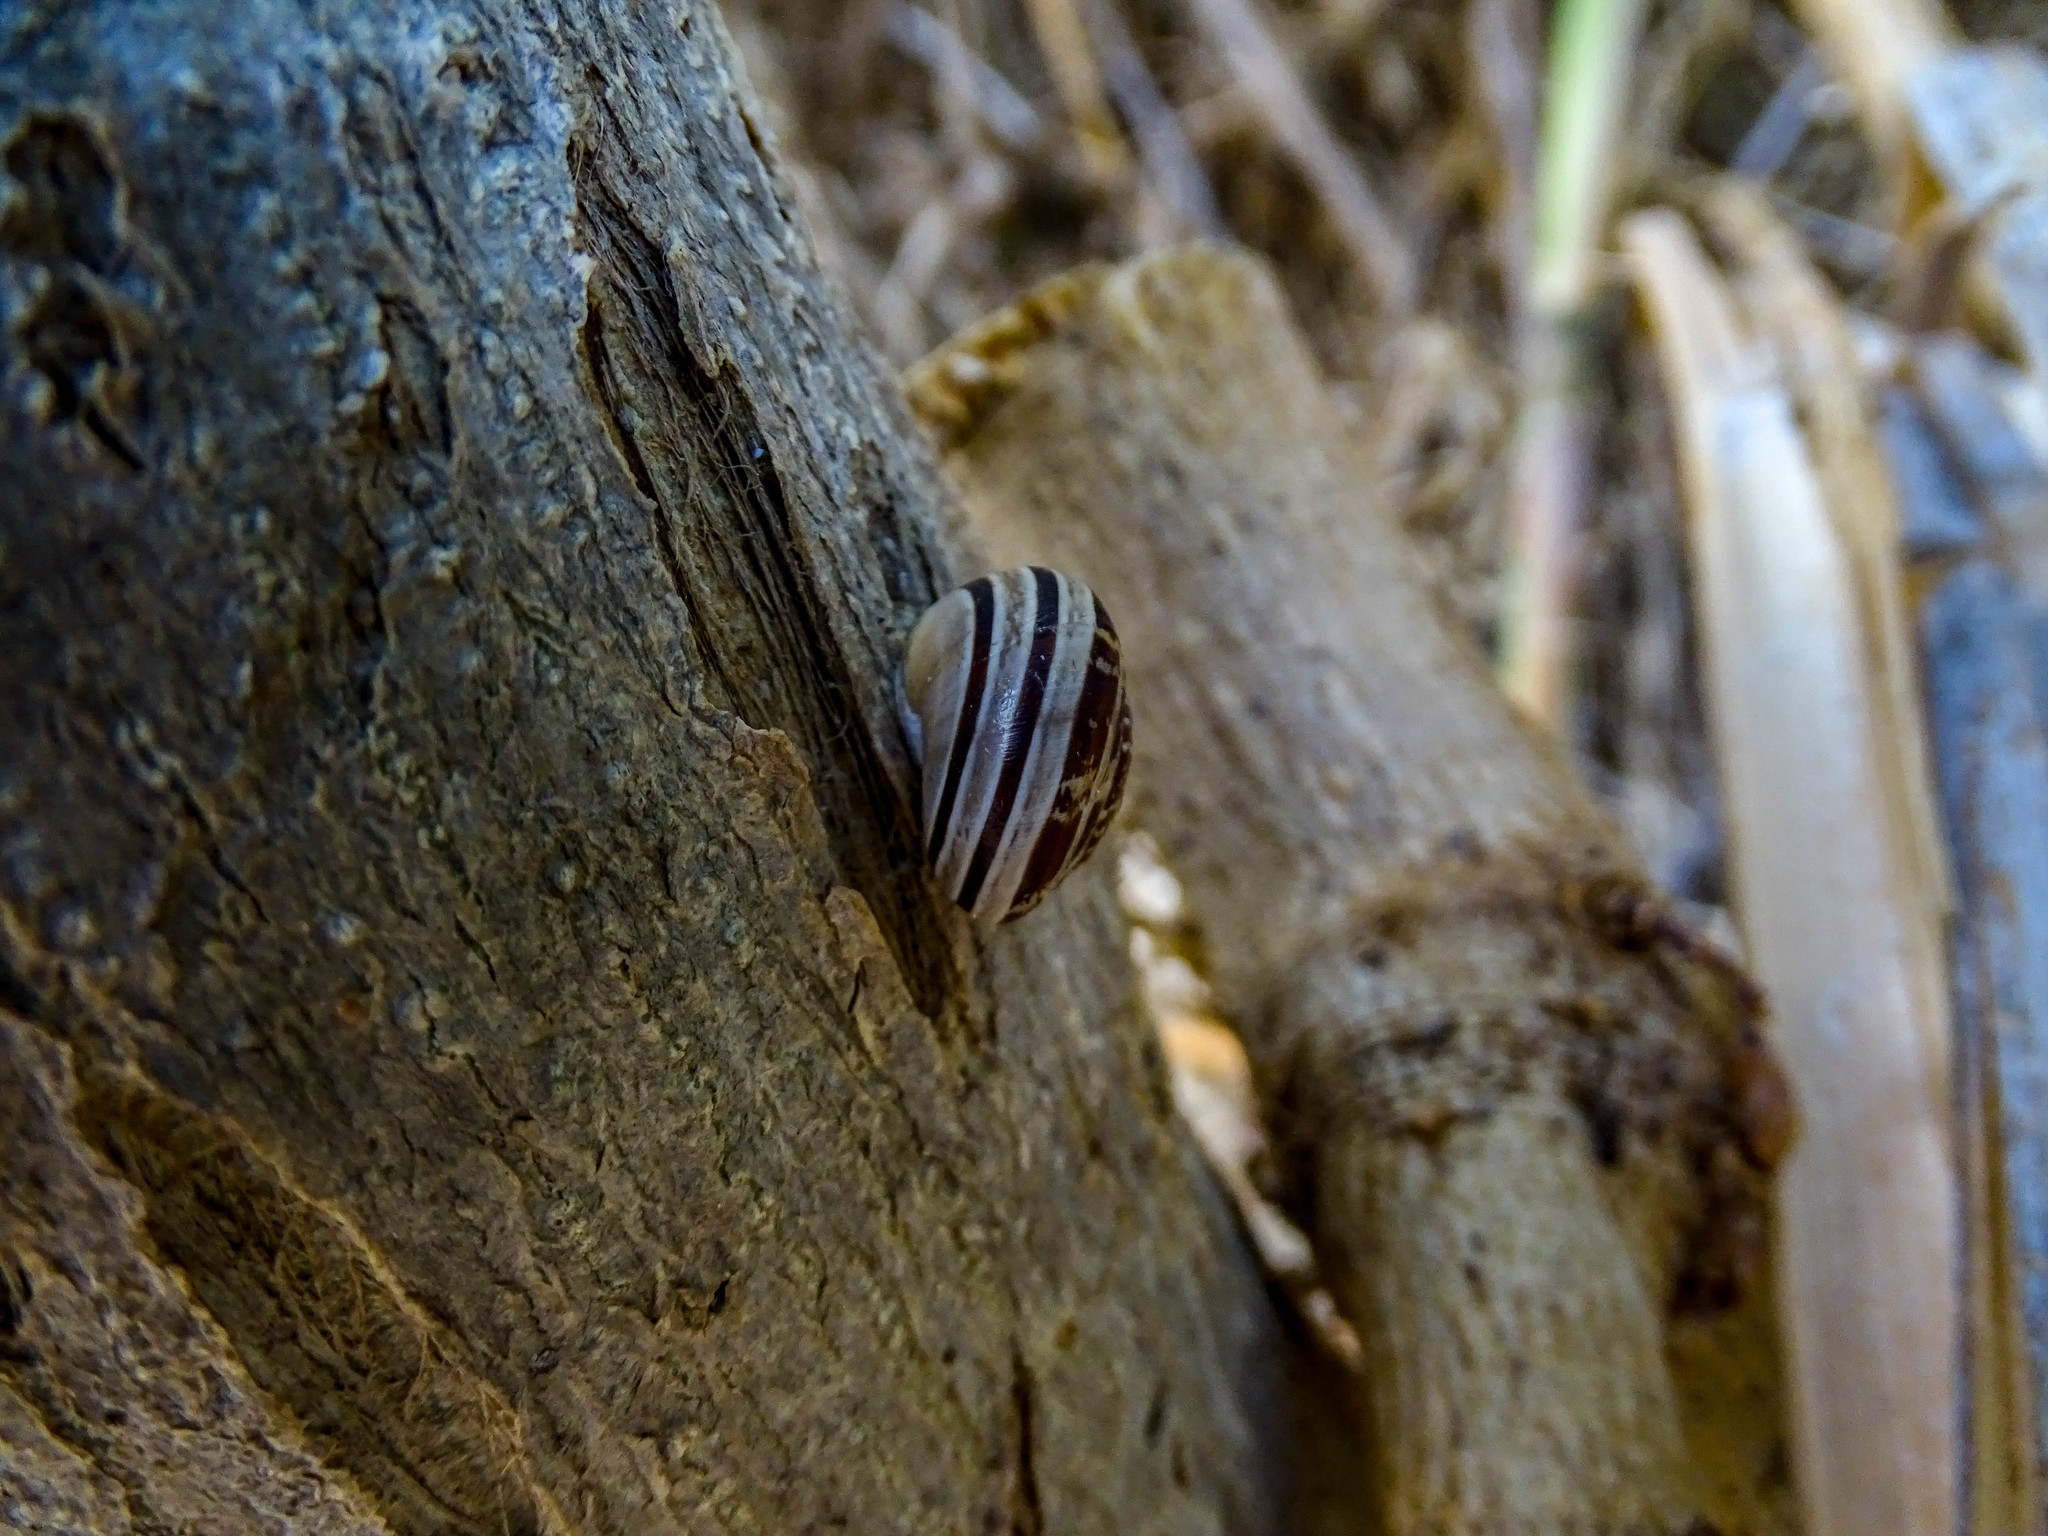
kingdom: Animalia
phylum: Mollusca
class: Gastropoda
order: Stylommatophora
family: Helicidae
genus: Eobania
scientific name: Eobania vermiculata
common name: Chocolateband snail
